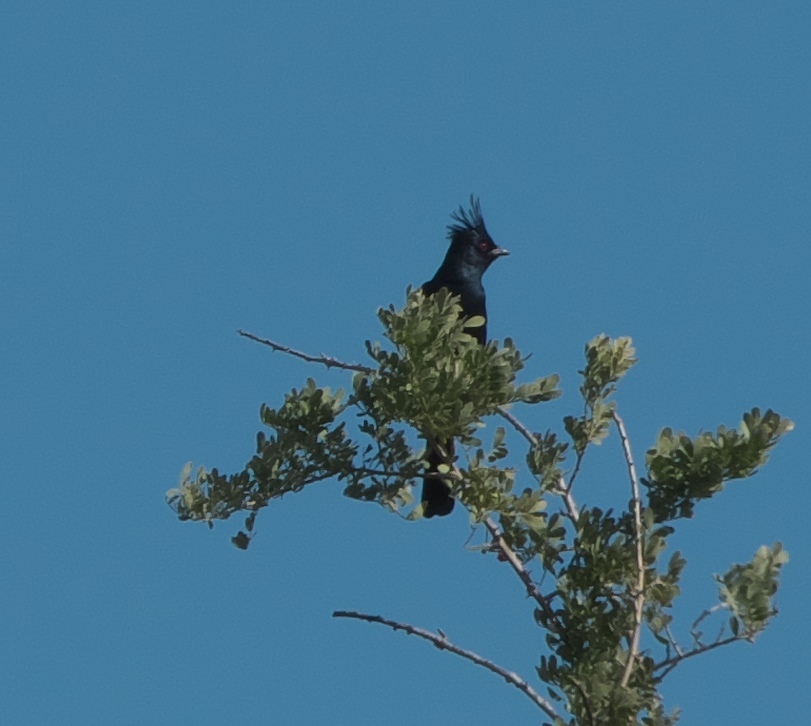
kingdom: Animalia
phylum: Chordata
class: Aves
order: Passeriformes
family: Ptilogonatidae
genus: Phainopepla
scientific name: Phainopepla nitens
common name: Phainopepla
